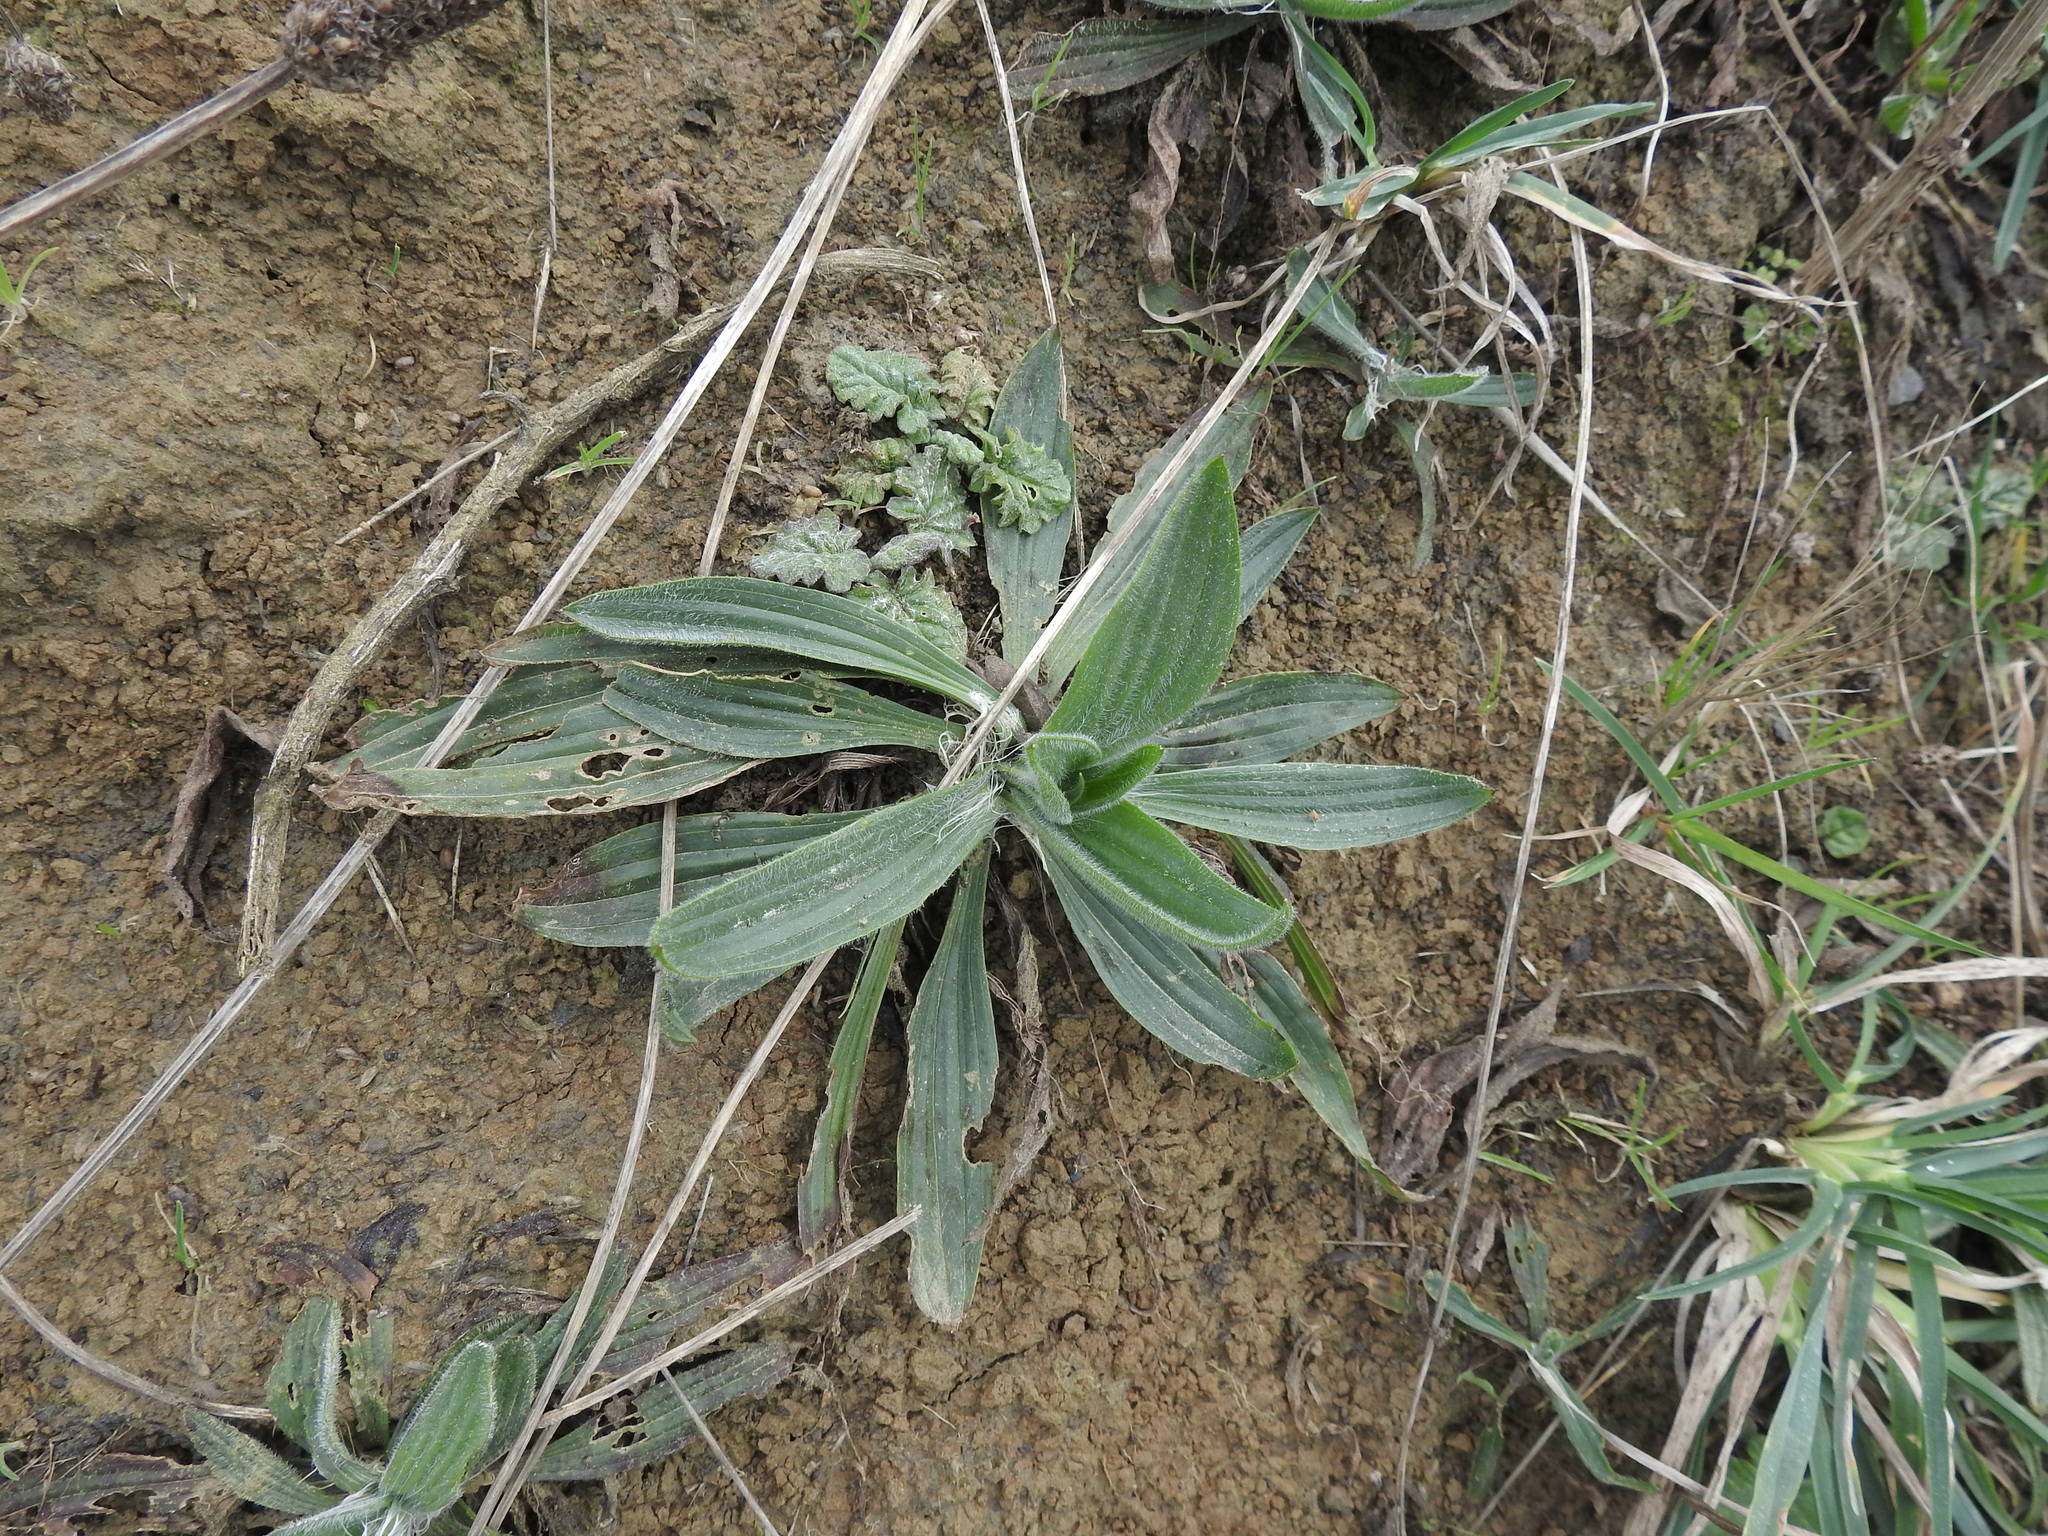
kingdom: Plantae
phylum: Tracheophyta
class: Magnoliopsida
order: Lamiales
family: Plantaginaceae
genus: Plantago
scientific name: Plantago lanceolata
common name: Ribwort plantain
